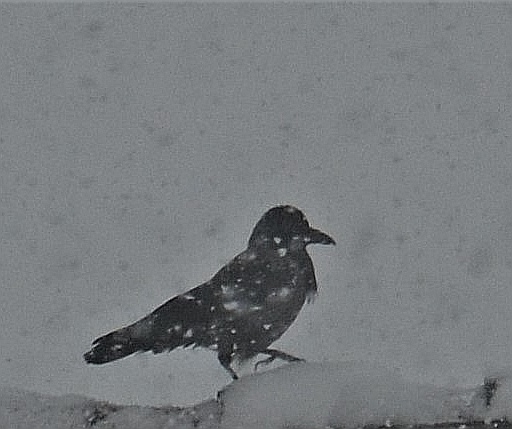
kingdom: Animalia
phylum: Chordata
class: Aves
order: Passeriformes
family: Corvidae
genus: Corvus
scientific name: Corvus corone
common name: Carrion crow
